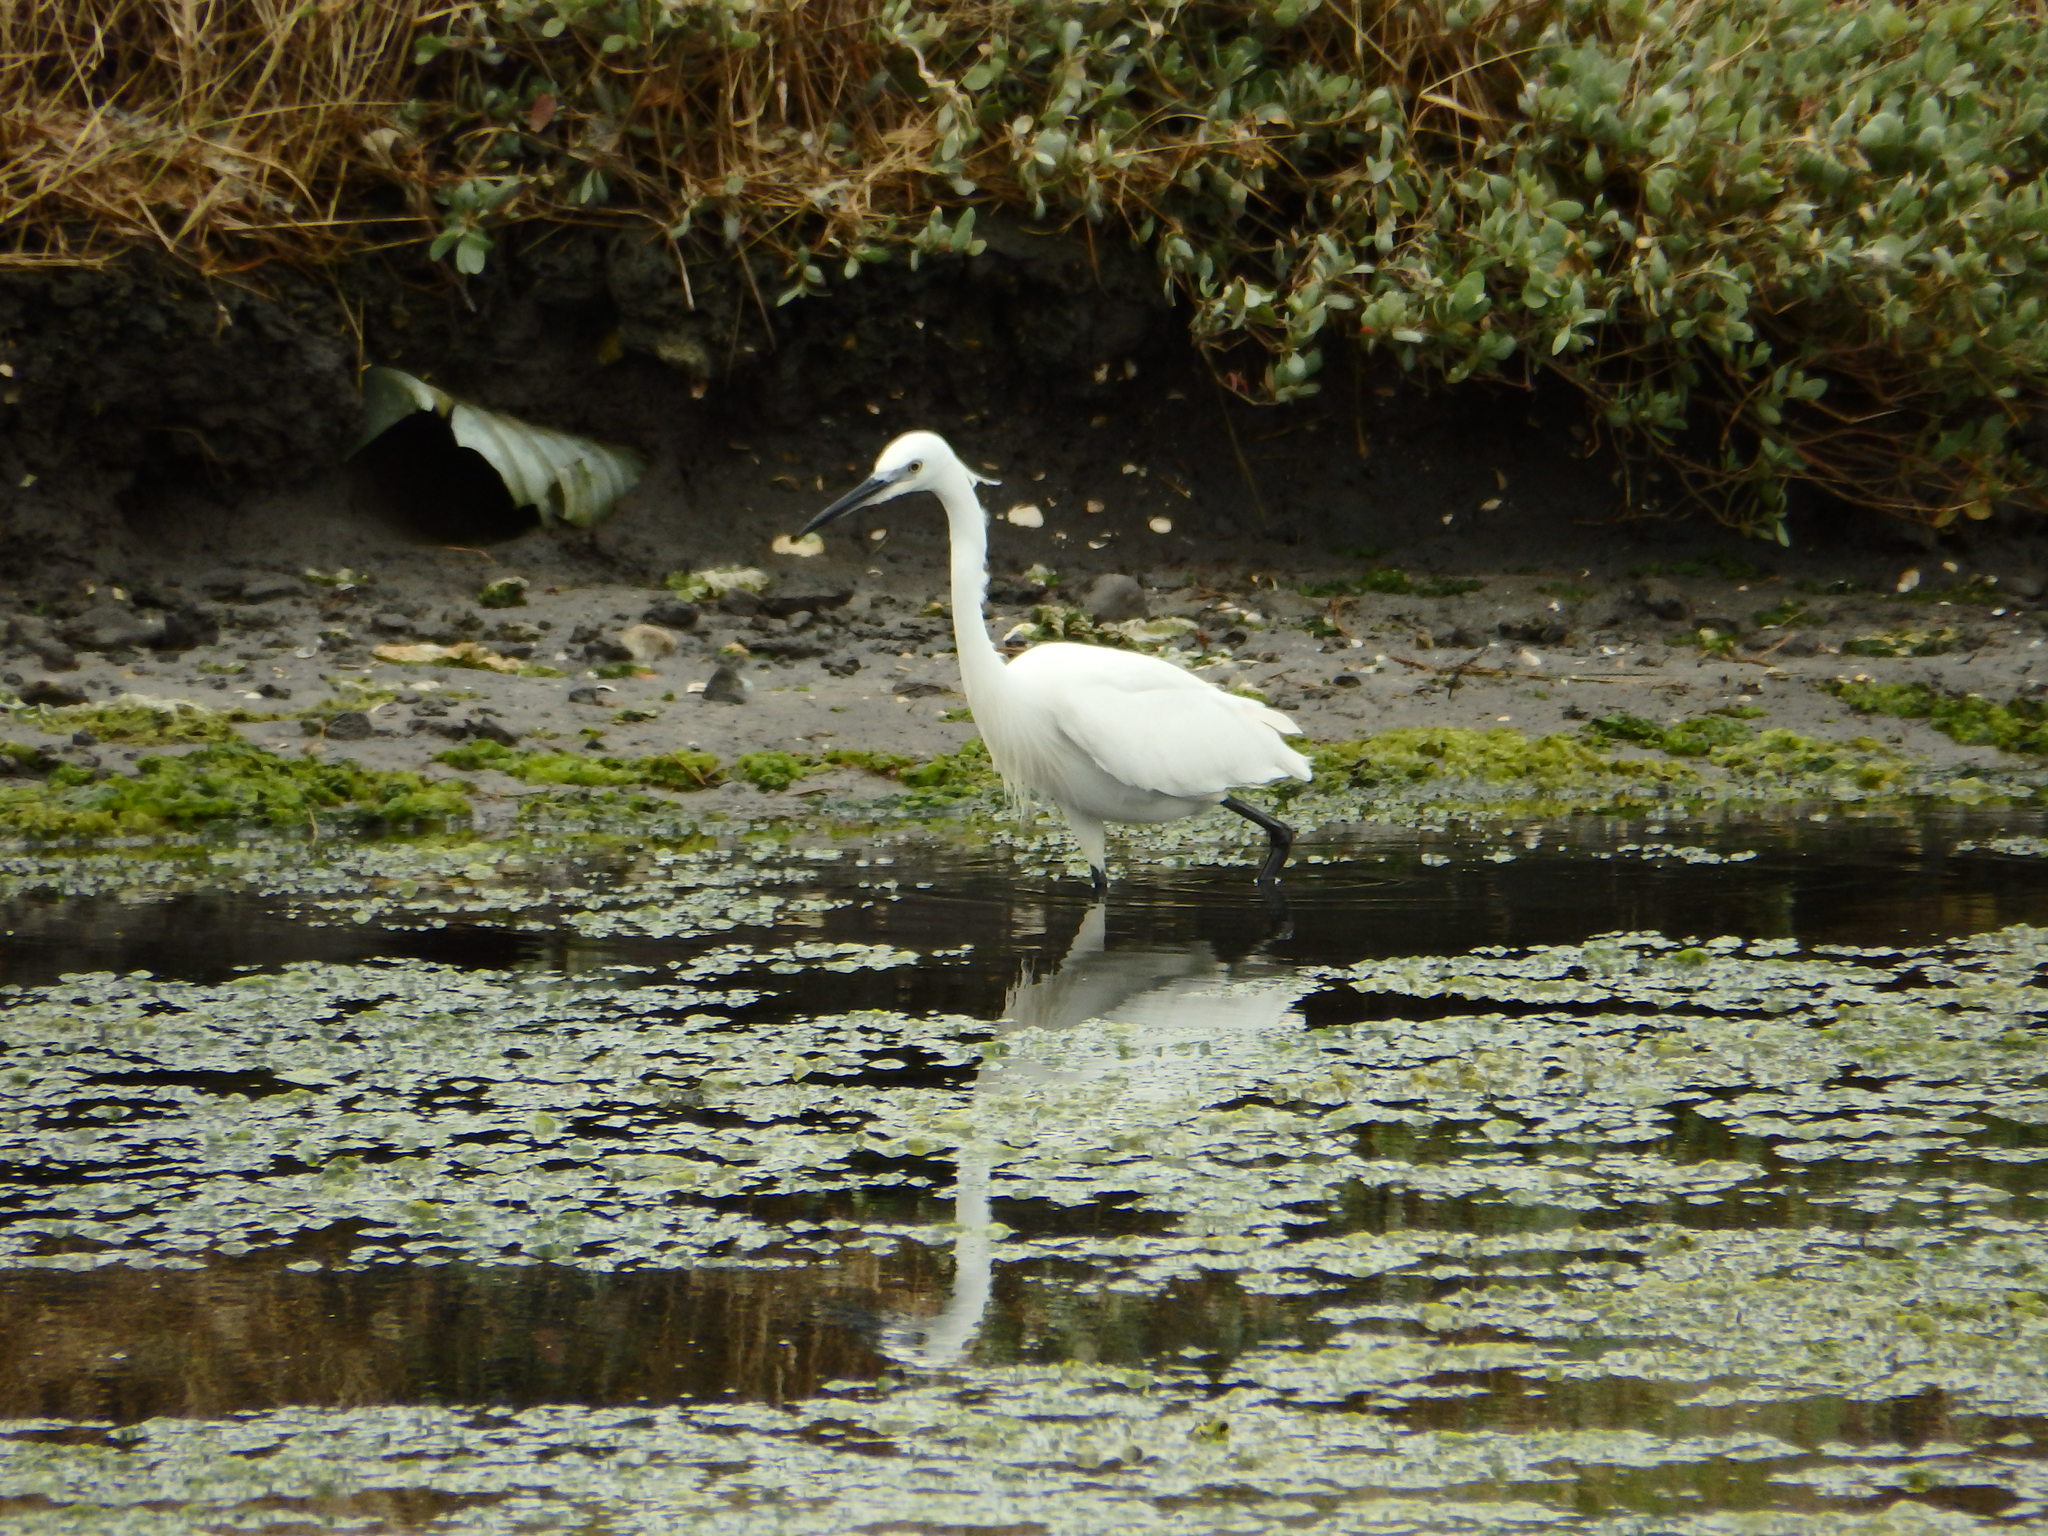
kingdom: Animalia
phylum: Chordata
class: Aves
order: Pelecaniformes
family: Ardeidae
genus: Egretta
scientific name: Egretta garzetta
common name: Little egret
